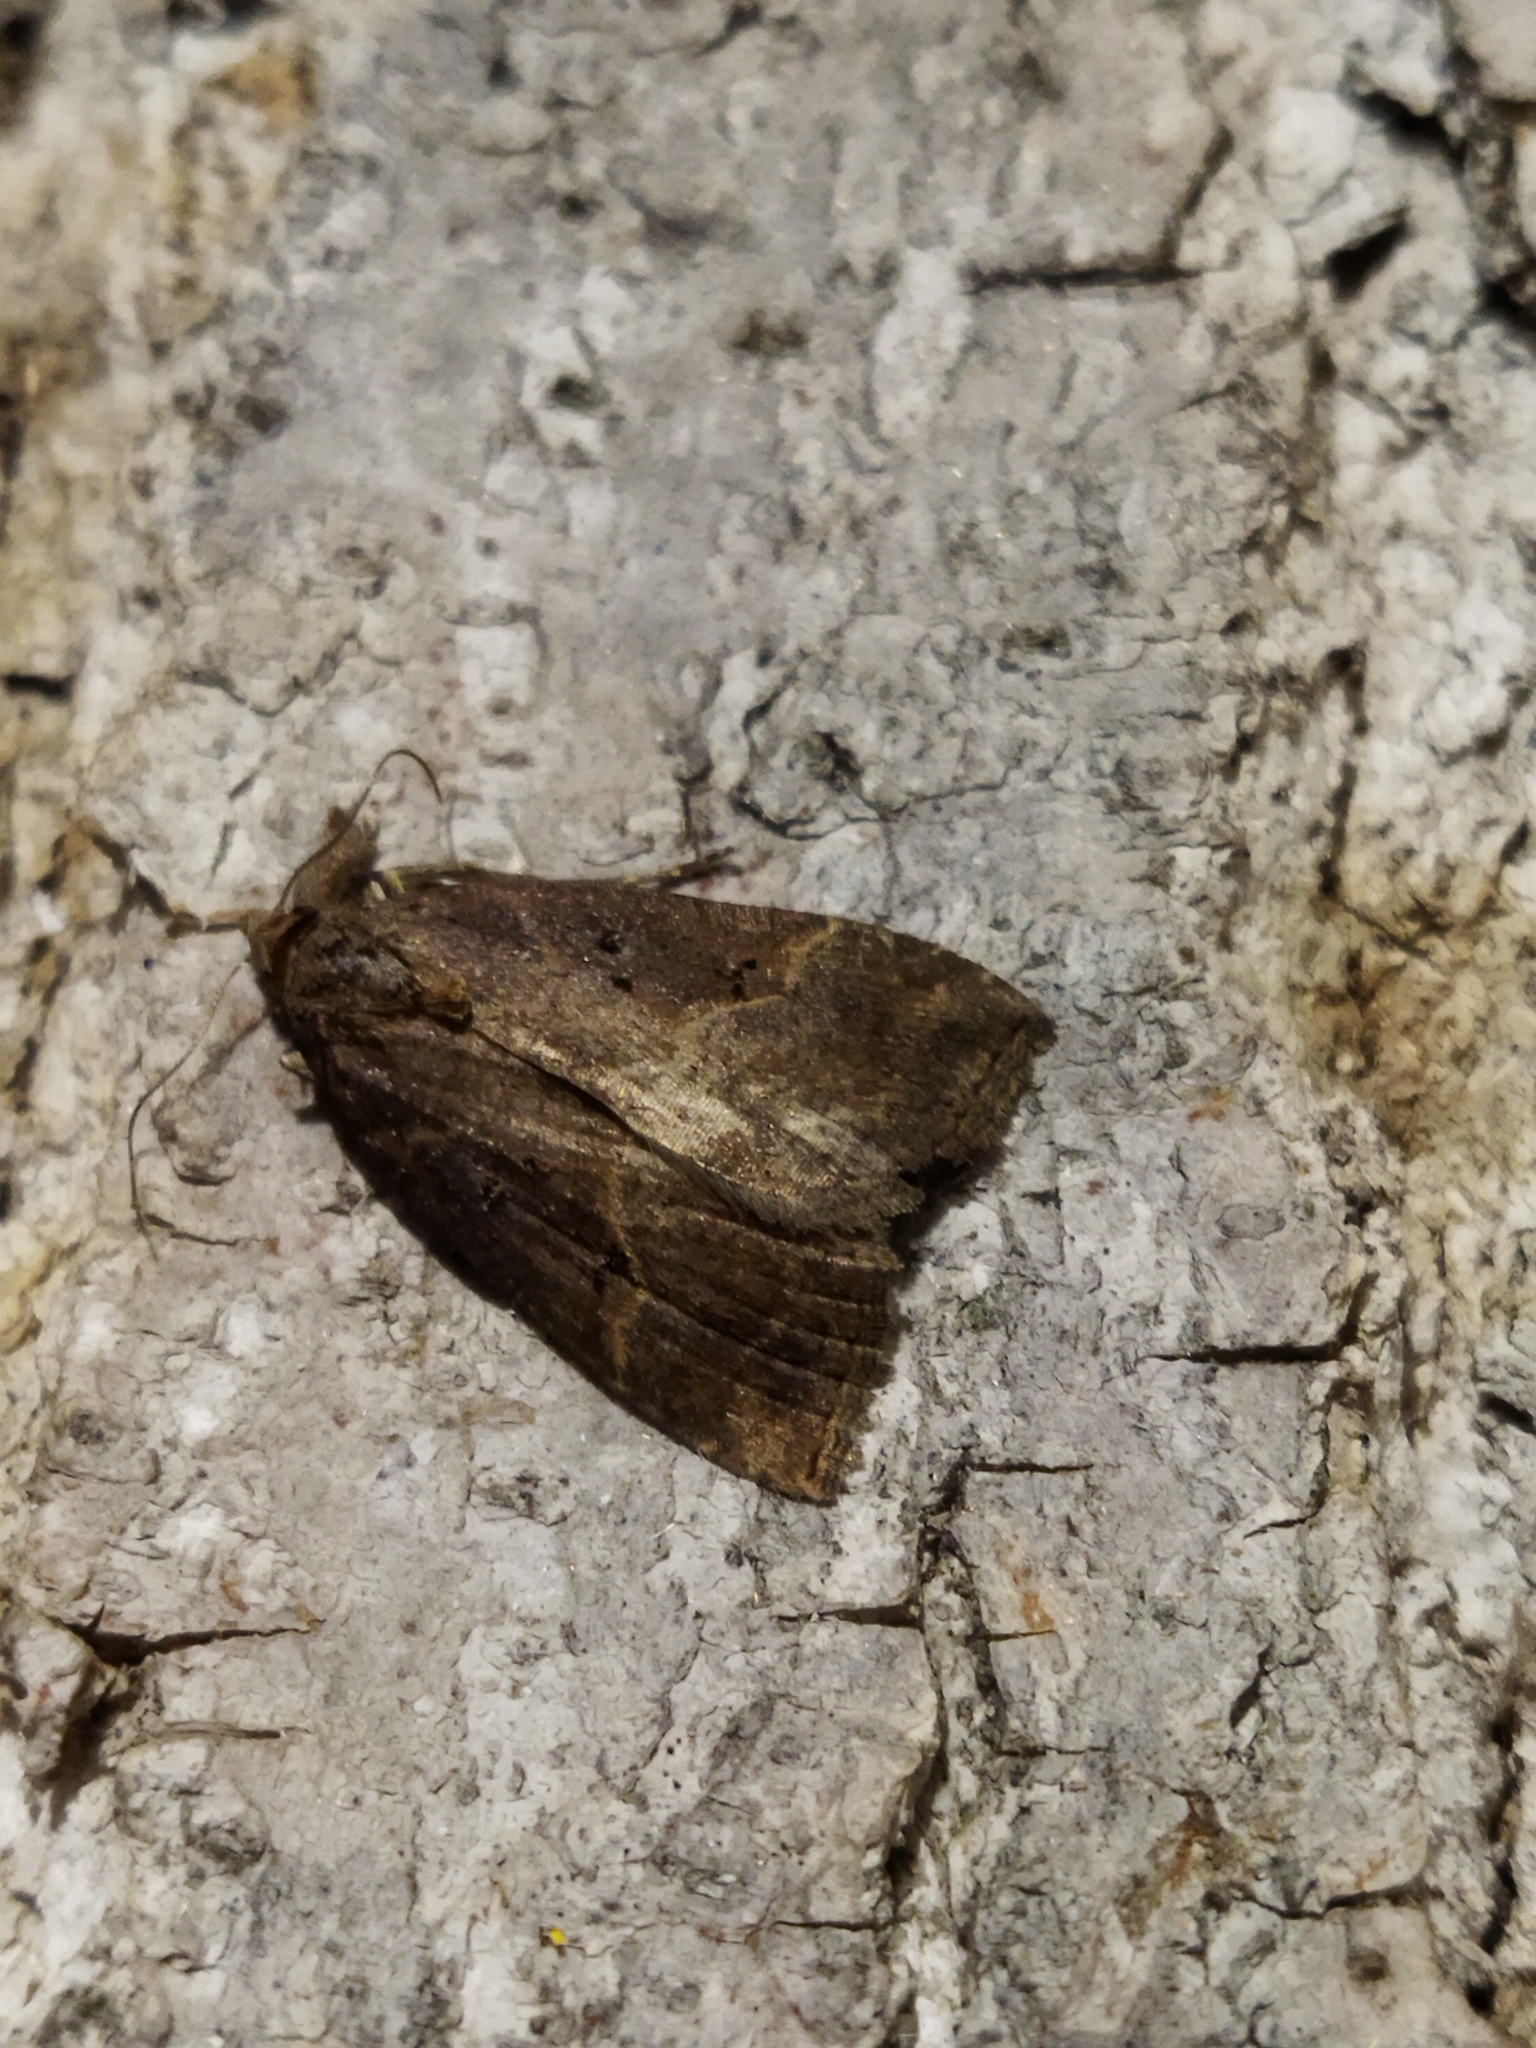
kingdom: Animalia
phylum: Arthropoda
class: Insecta
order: Lepidoptera
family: Erebidae
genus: Hypena
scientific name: Hypena rostralis
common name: Buttoned snout
